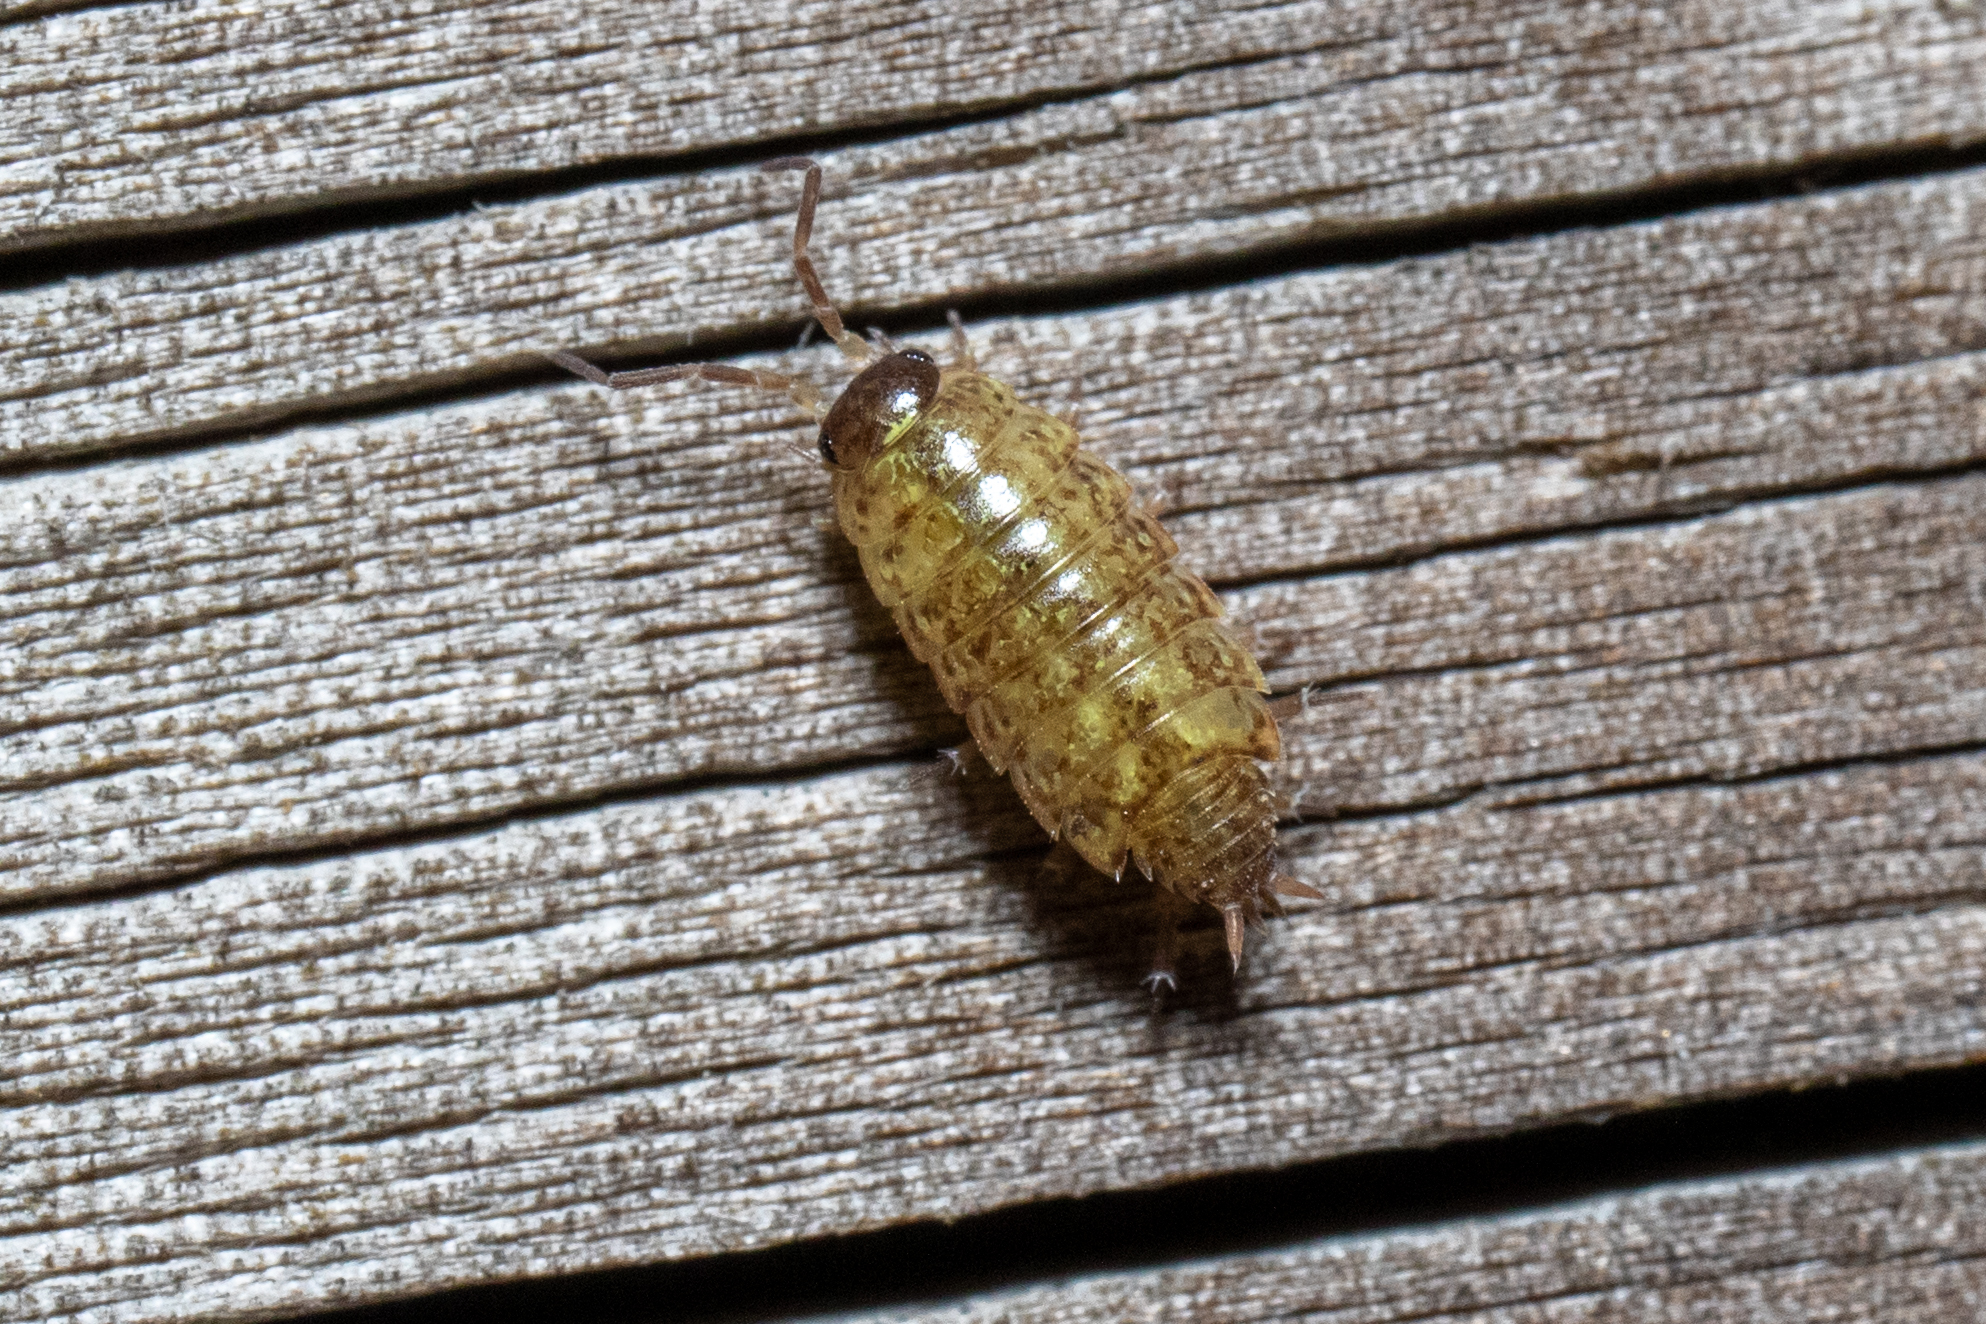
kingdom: Animalia
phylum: Arthropoda
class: Malacostraca
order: Isopoda
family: Philosciidae
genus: Philoscia
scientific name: Philoscia muscorum
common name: Common striped woodlouse
